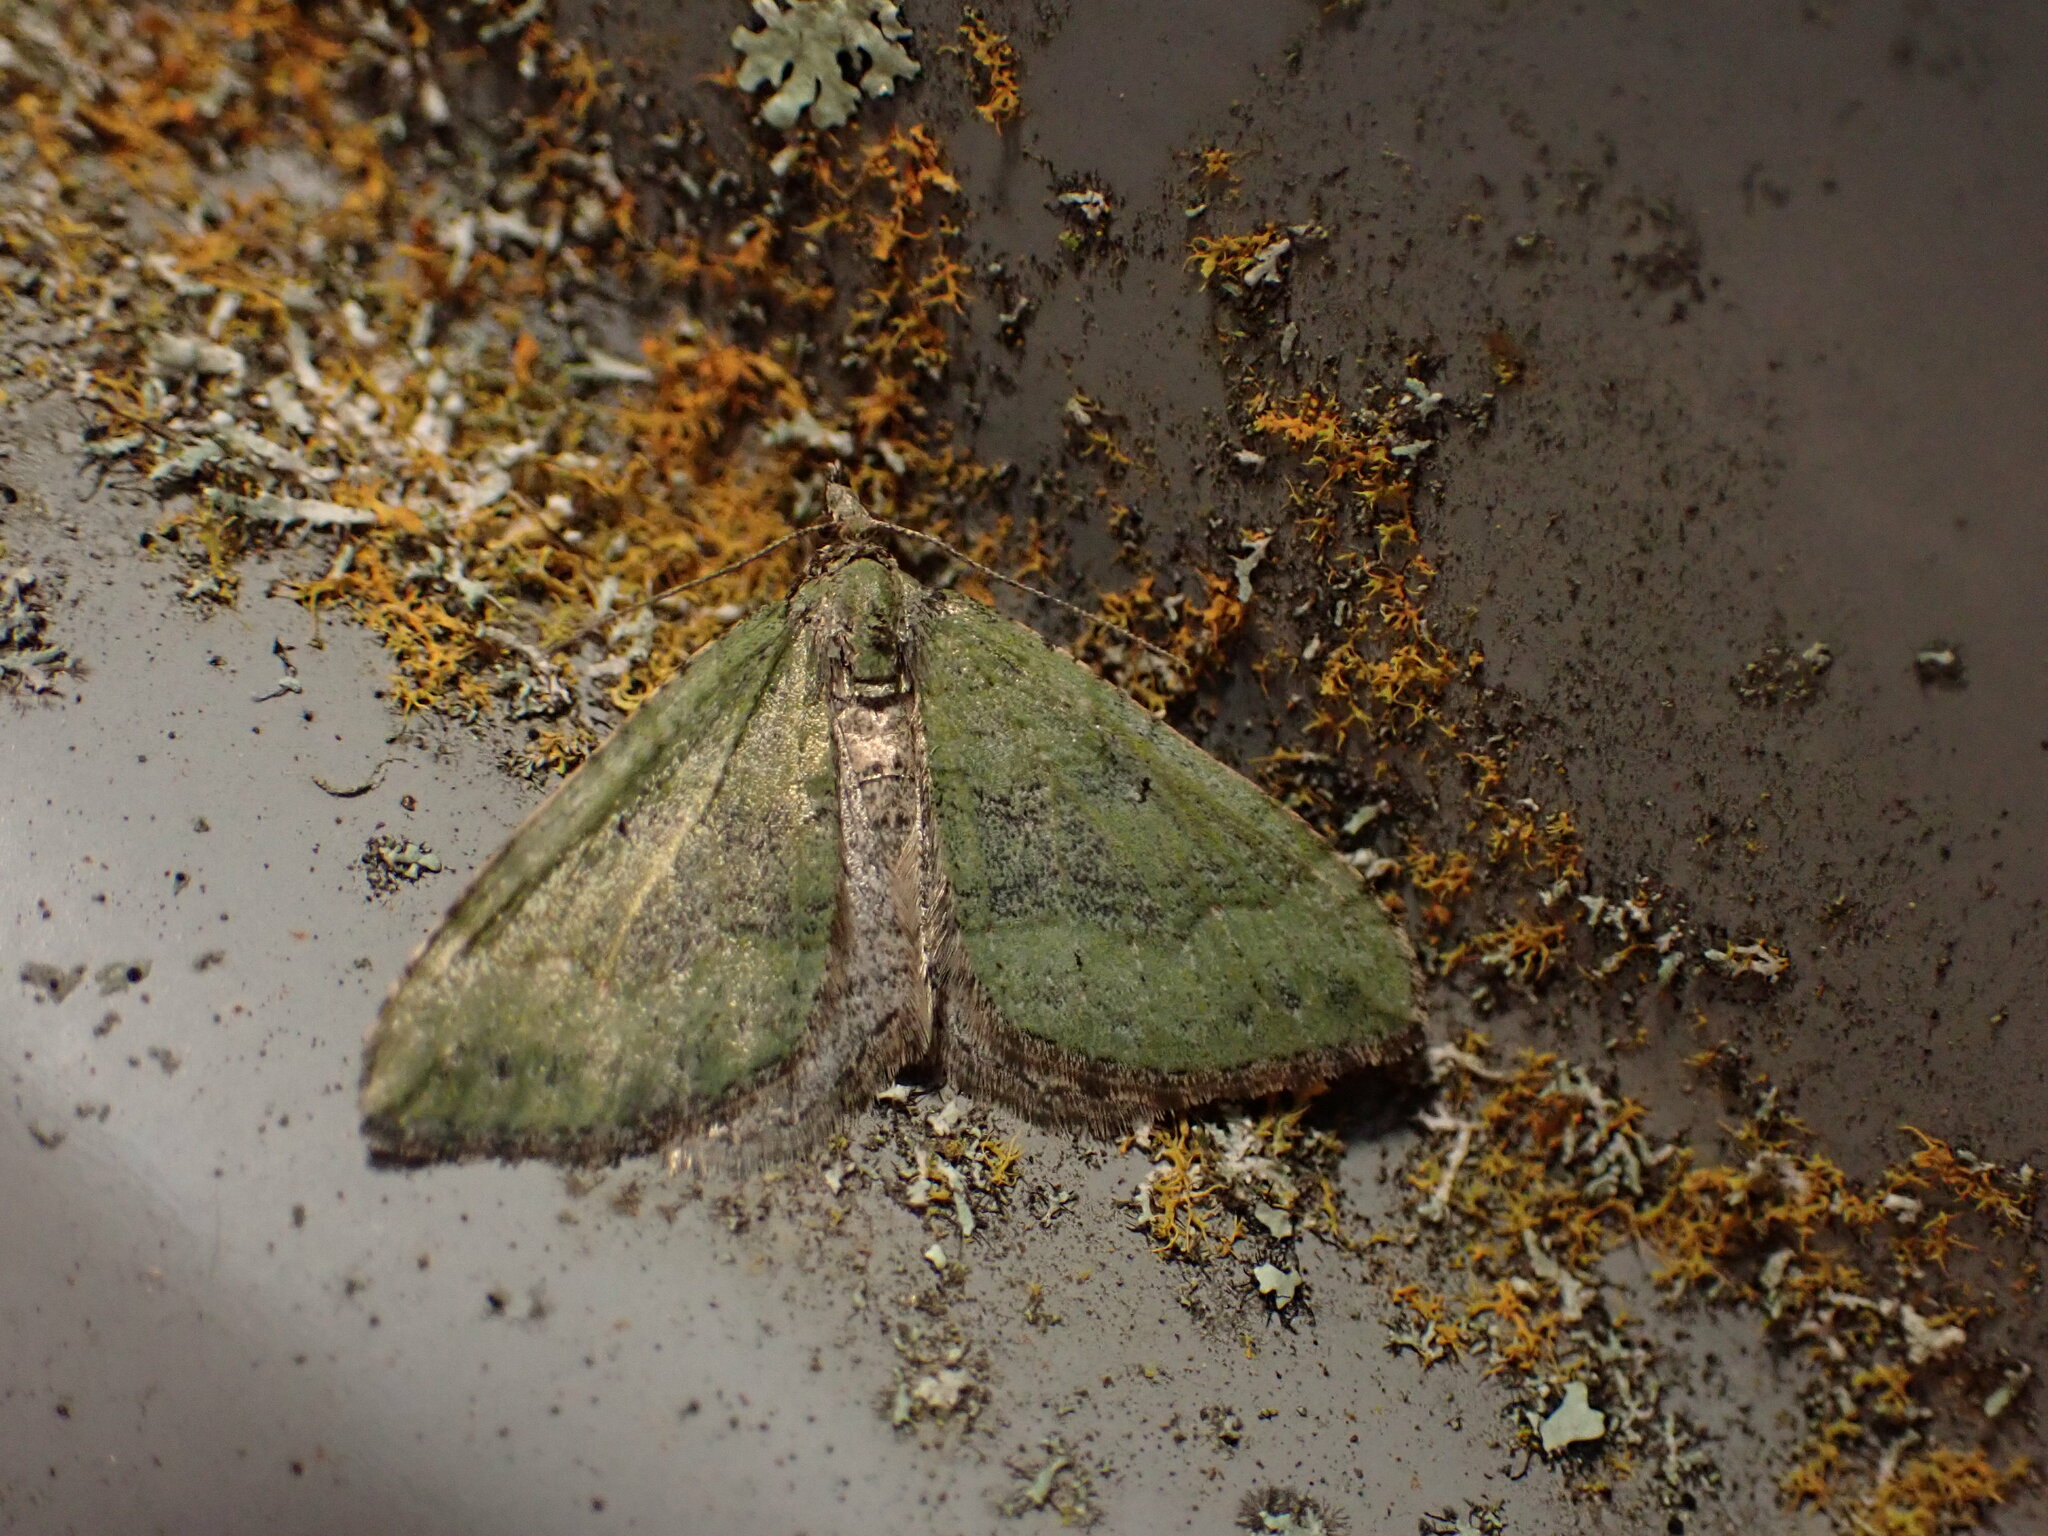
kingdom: Animalia
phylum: Arthropoda
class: Insecta
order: Lepidoptera
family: Geometridae
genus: Epyaxa
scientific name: Epyaxa rosearia
